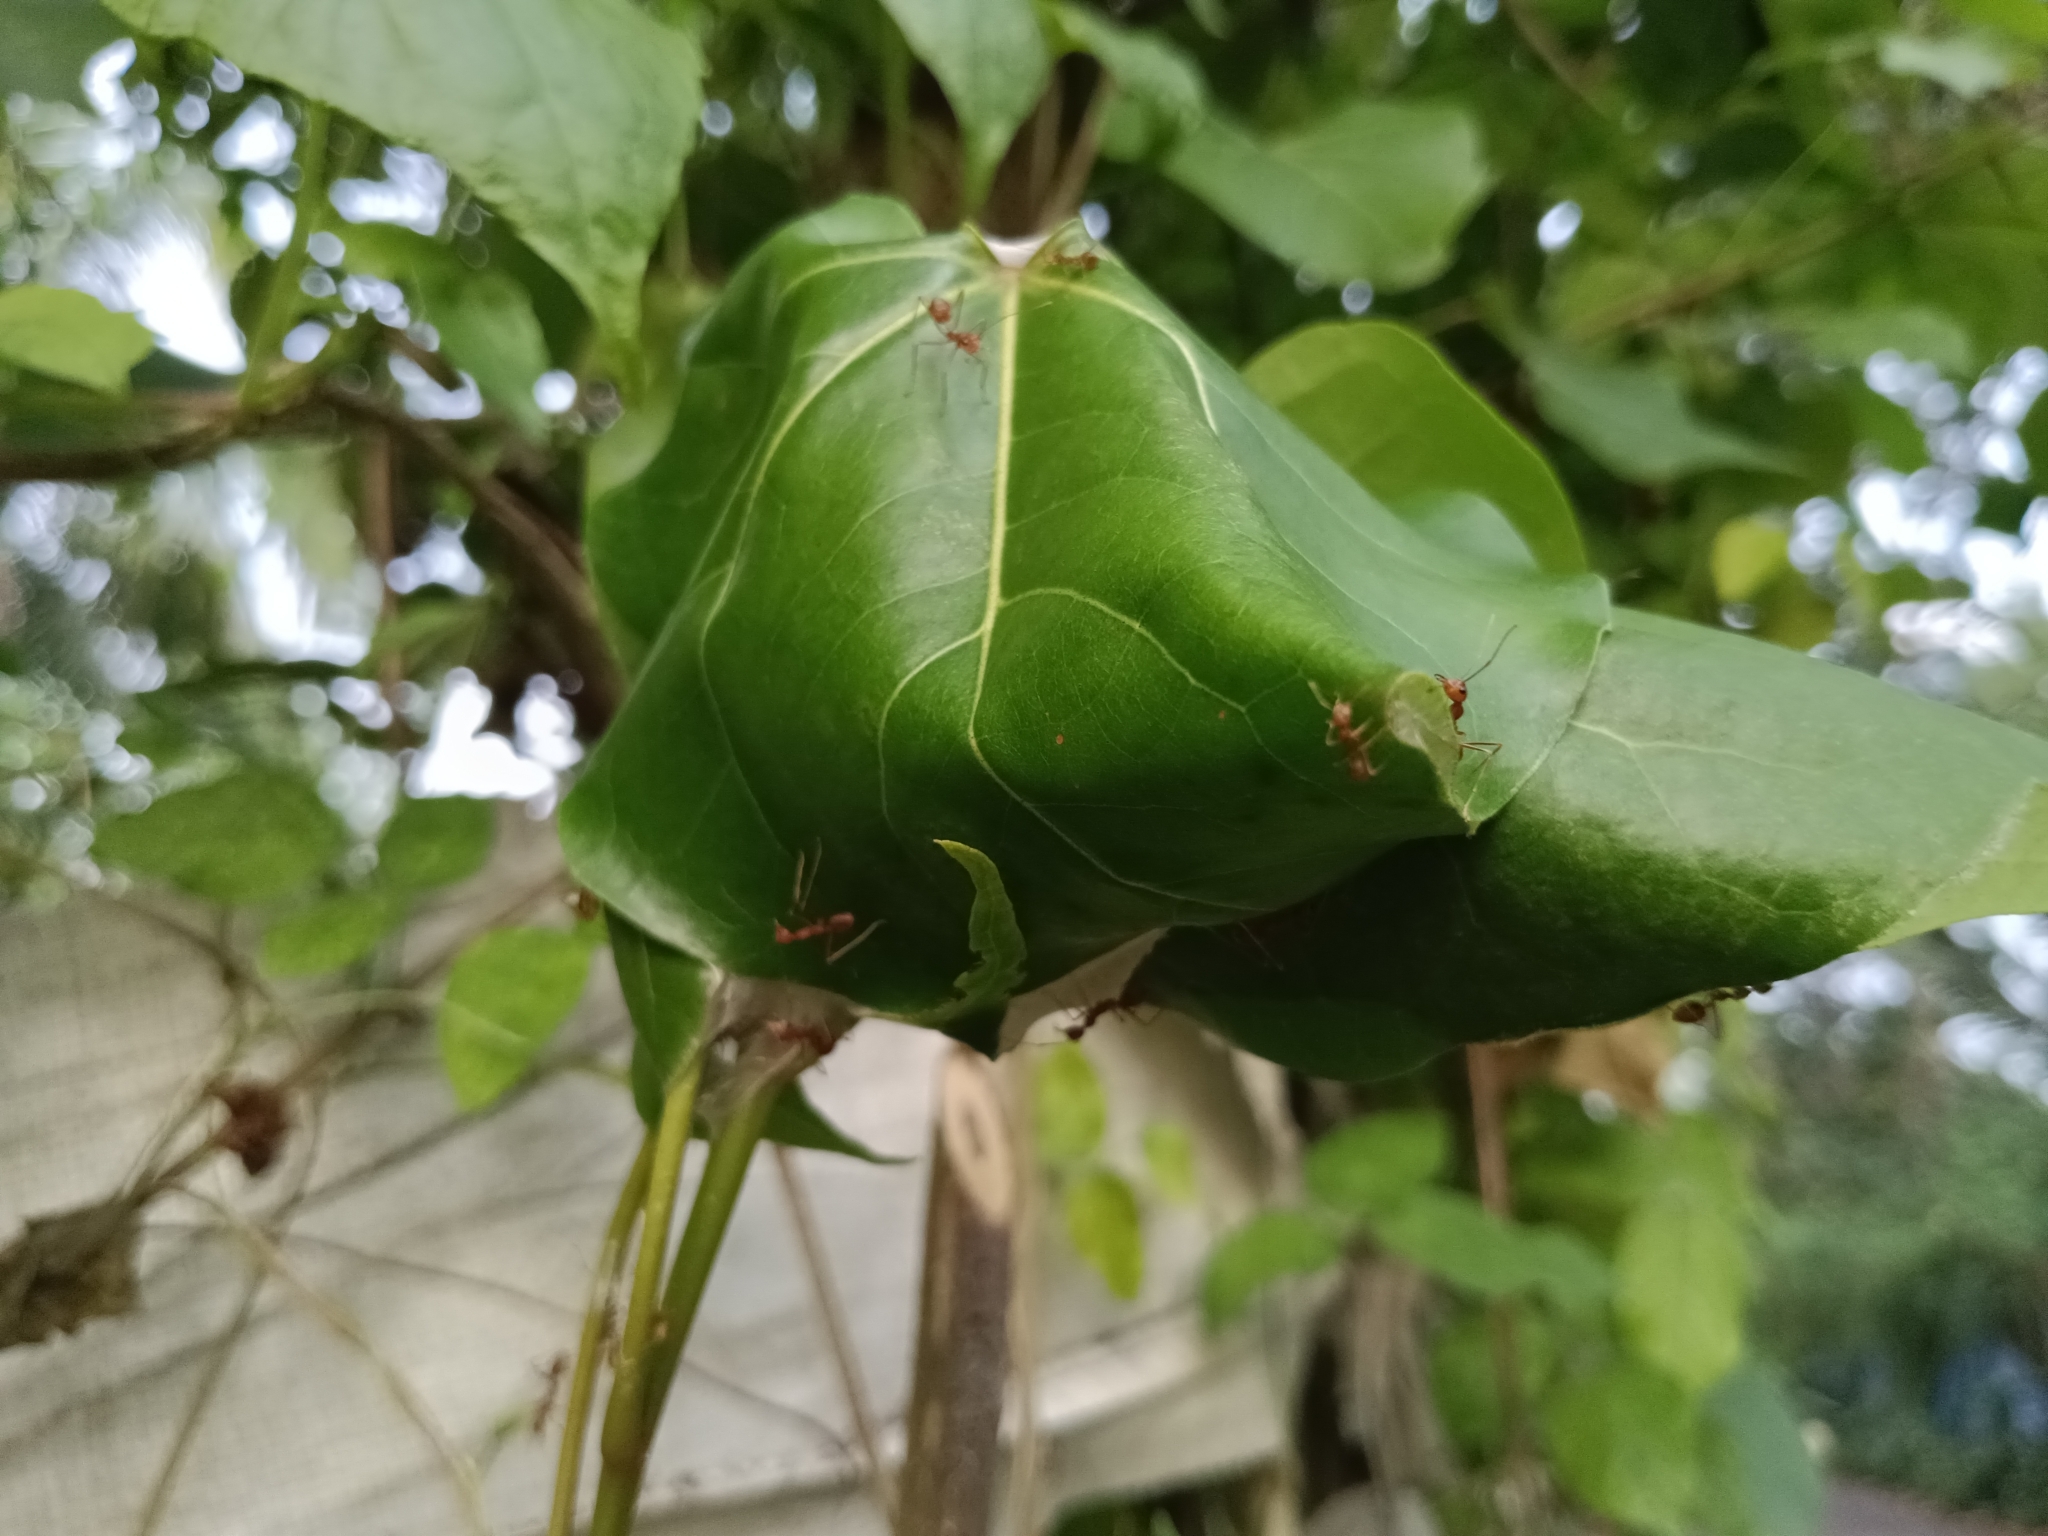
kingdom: Animalia
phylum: Arthropoda
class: Insecta
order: Hymenoptera
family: Formicidae
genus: Oecophylla
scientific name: Oecophylla smaragdina
